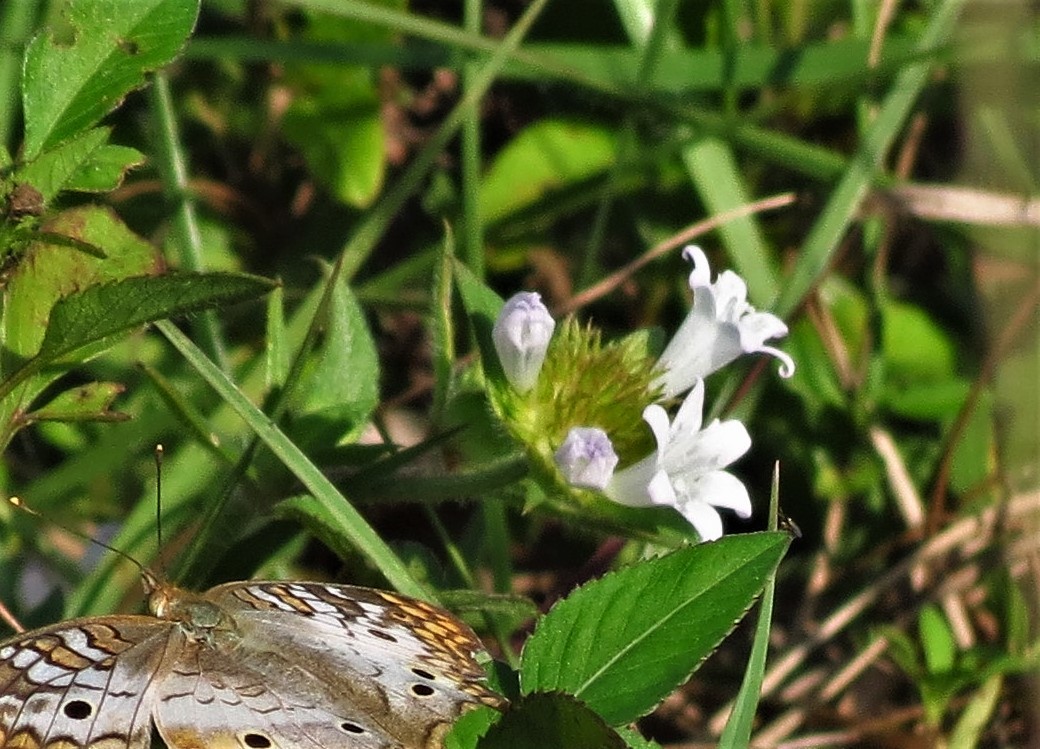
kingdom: Plantae
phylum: Tracheophyta
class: Magnoliopsida
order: Gentianales
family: Rubiaceae
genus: Richardia
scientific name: Richardia grandiflora
